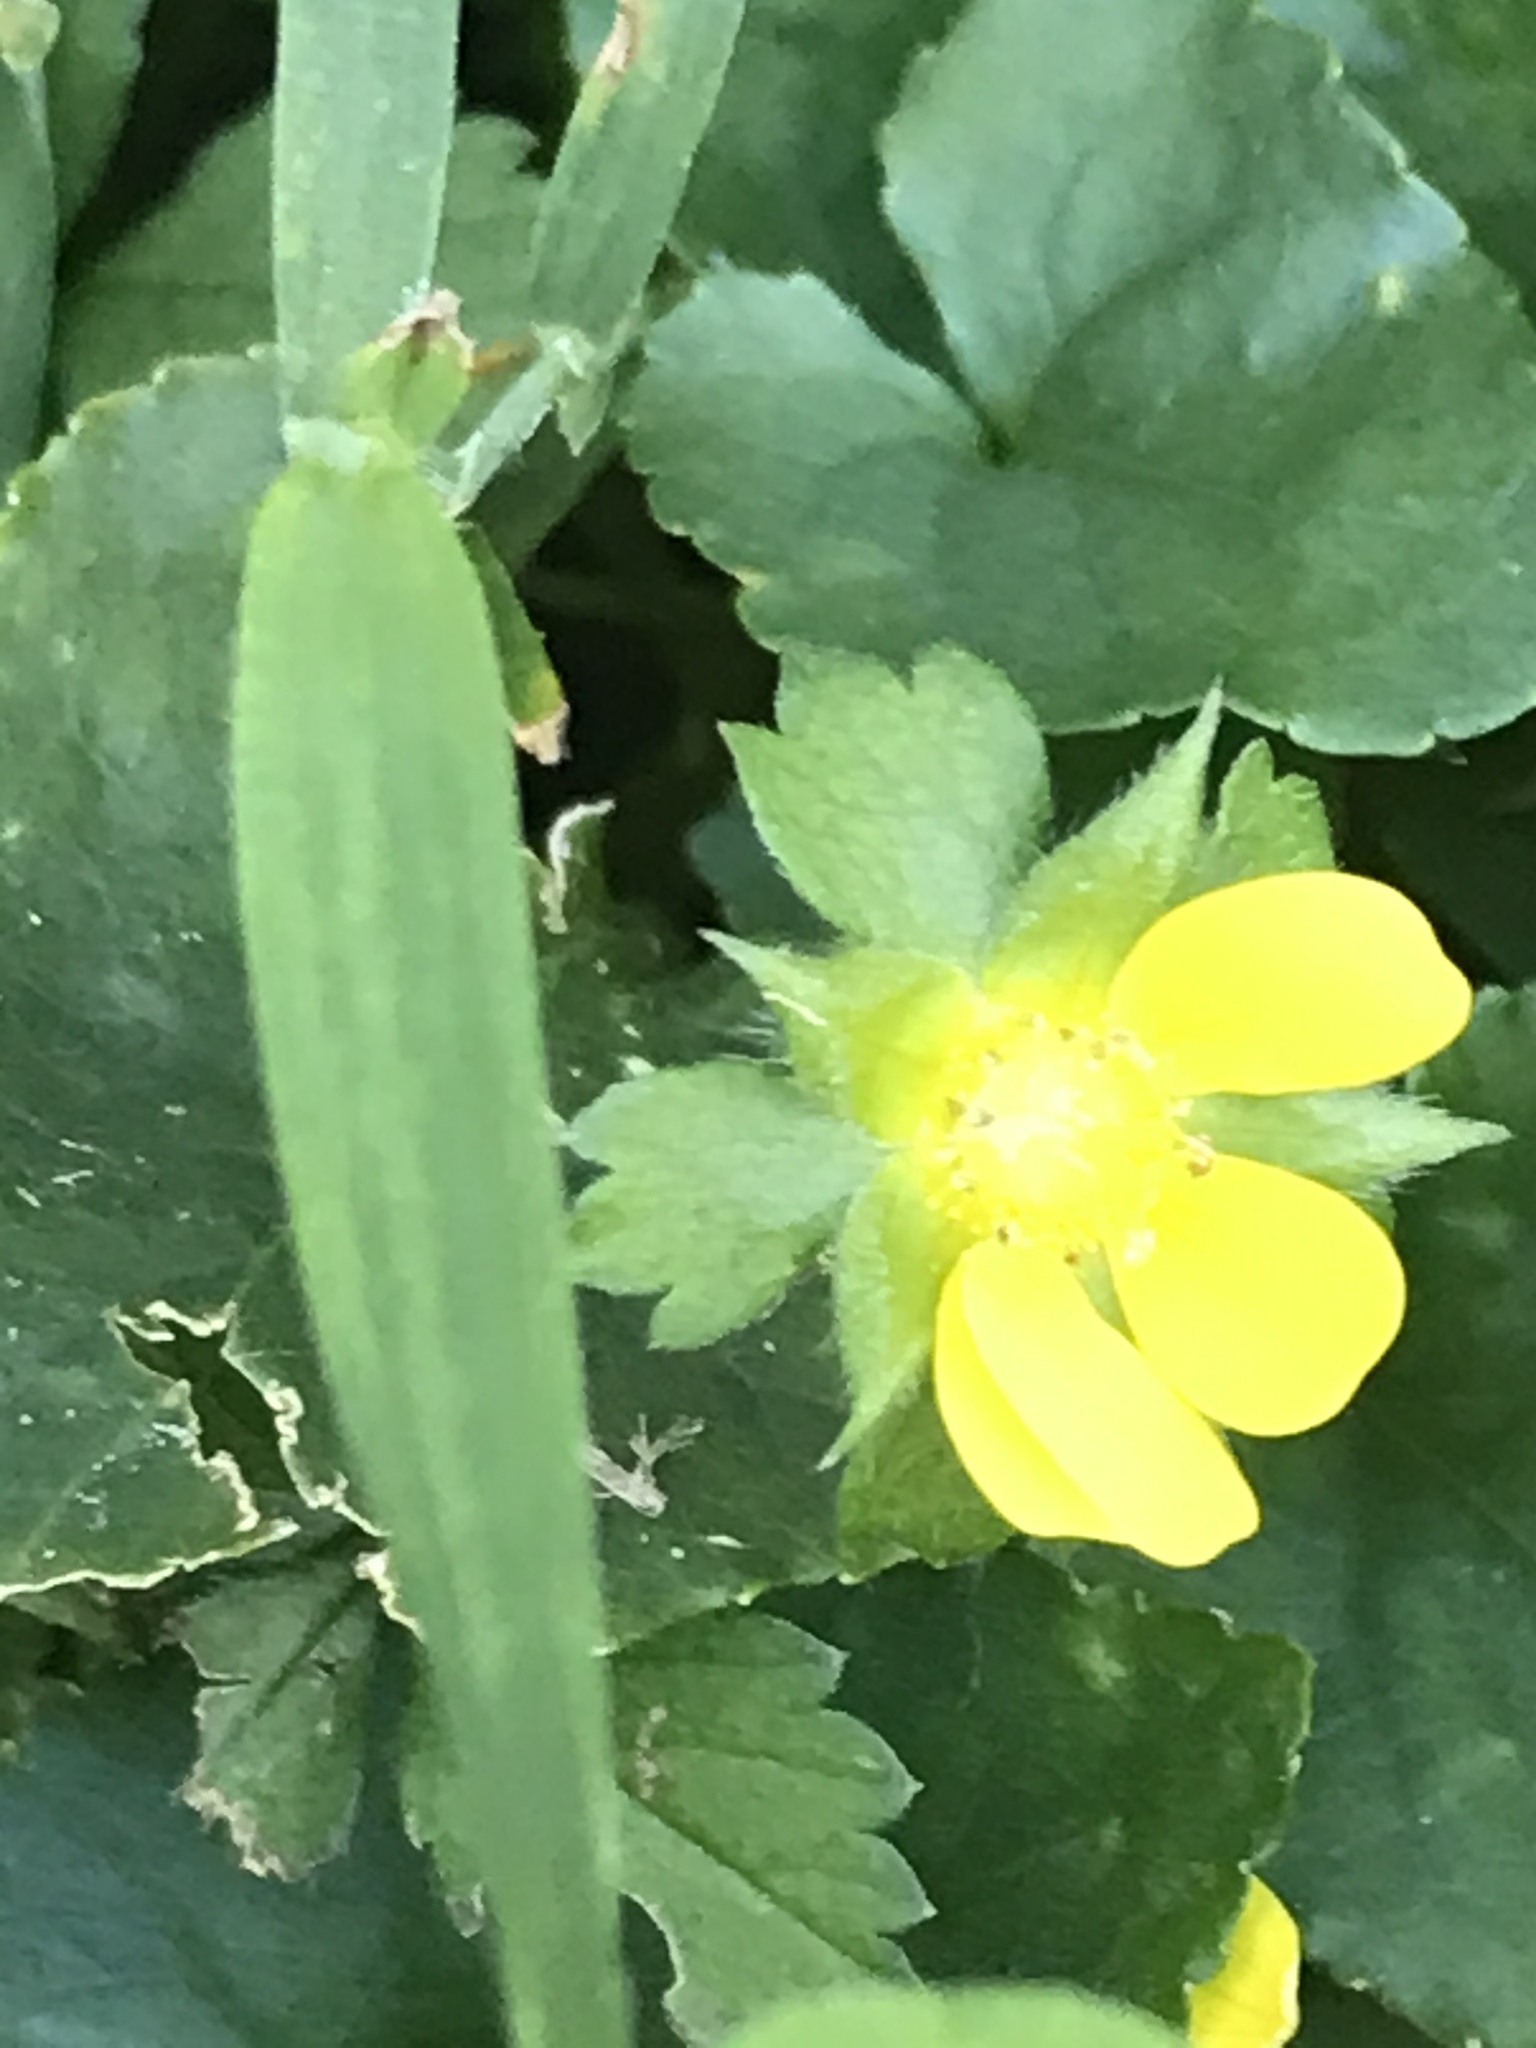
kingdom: Plantae
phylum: Tracheophyta
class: Magnoliopsida
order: Rosales
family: Rosaceae
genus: Potentilla
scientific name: Potentilla indica
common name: Yellow-flowered strawberry
